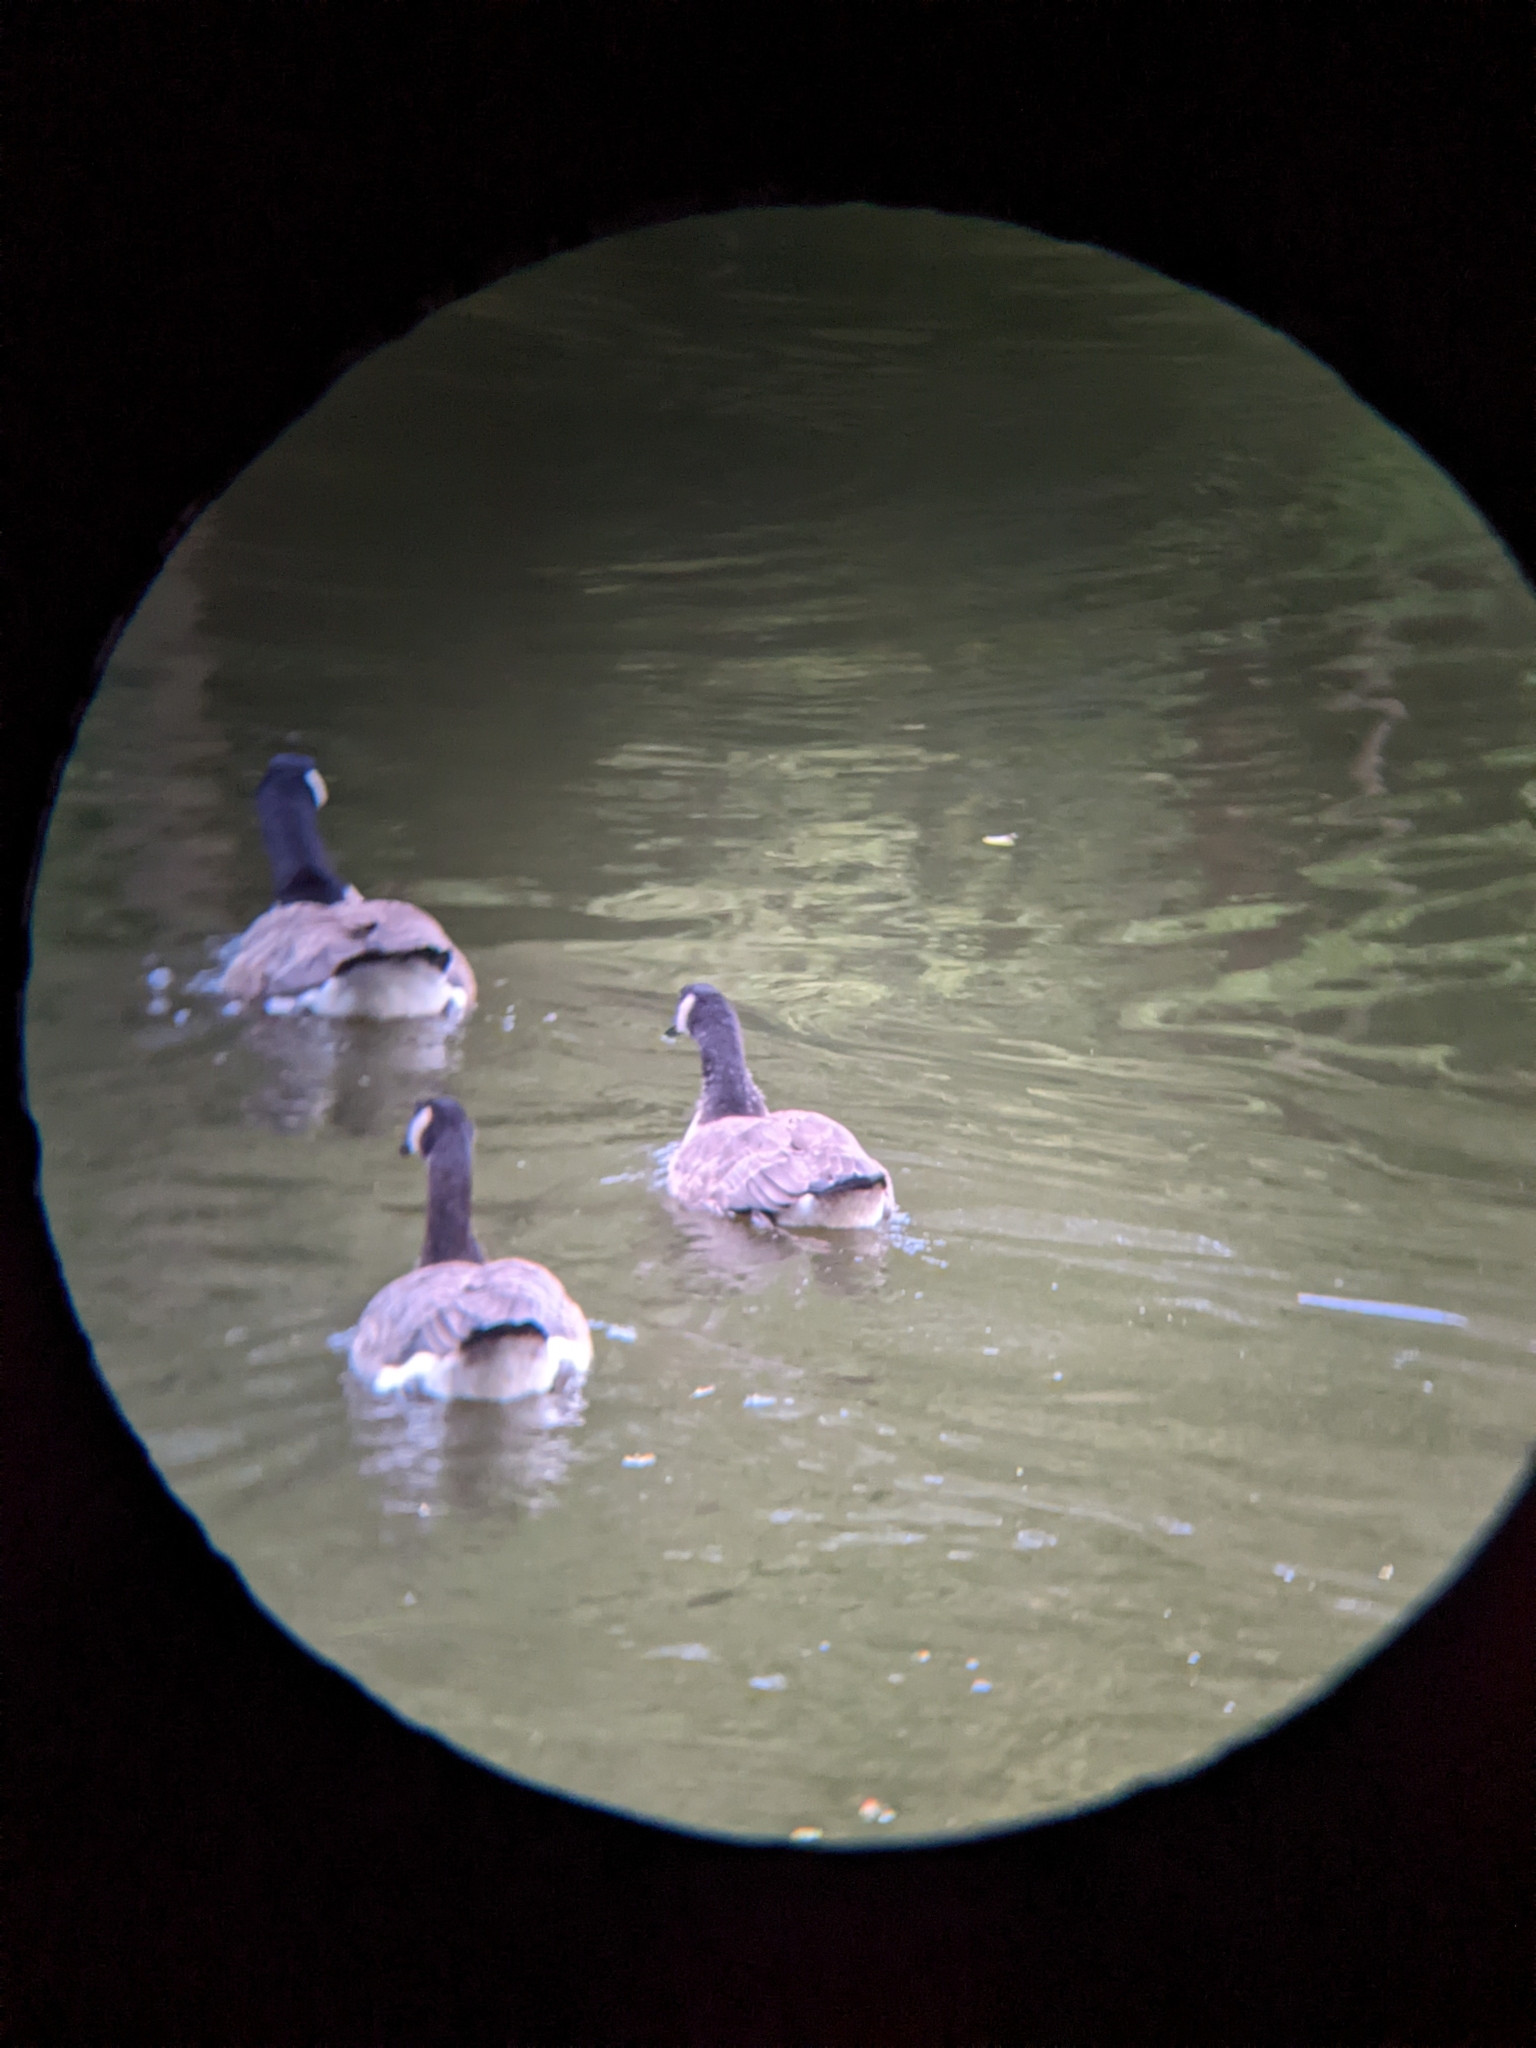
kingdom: Animalia
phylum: Chordata
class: Aves
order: Anseriformes
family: Anatidae
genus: Branta
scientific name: Branta canadensis
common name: Canada goose
